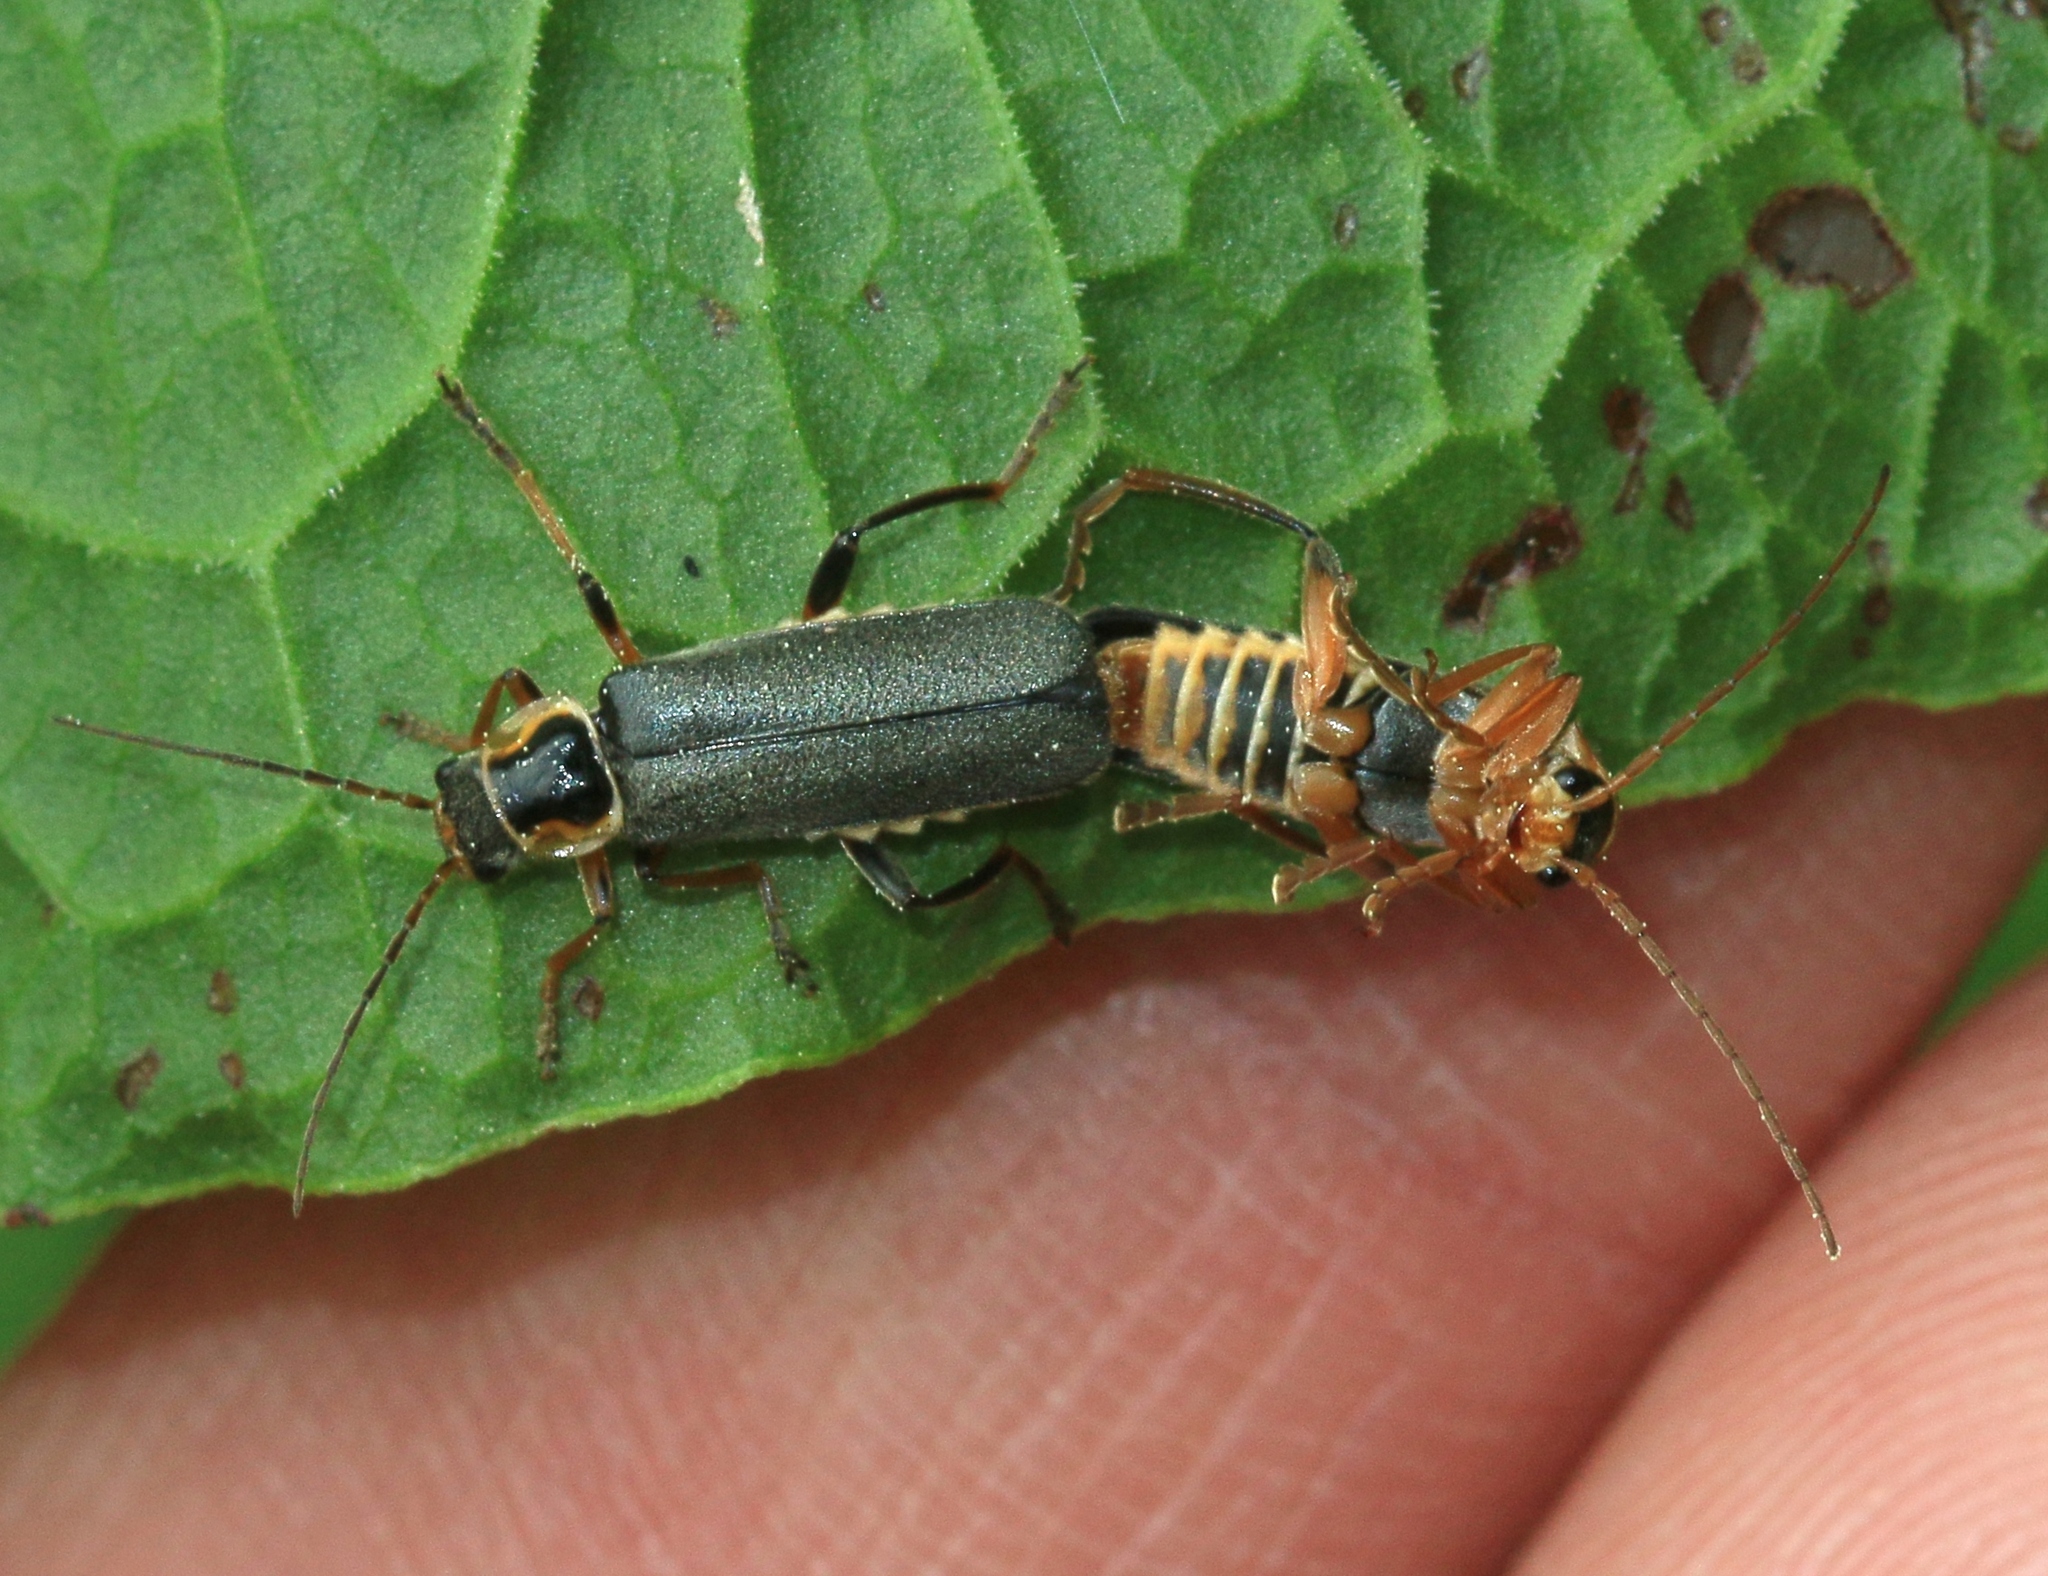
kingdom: Animalia
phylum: Arthropoda
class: Insecta
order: Coleoptera
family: Cantharidae
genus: Cantharis
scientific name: Cantharis nigricans
